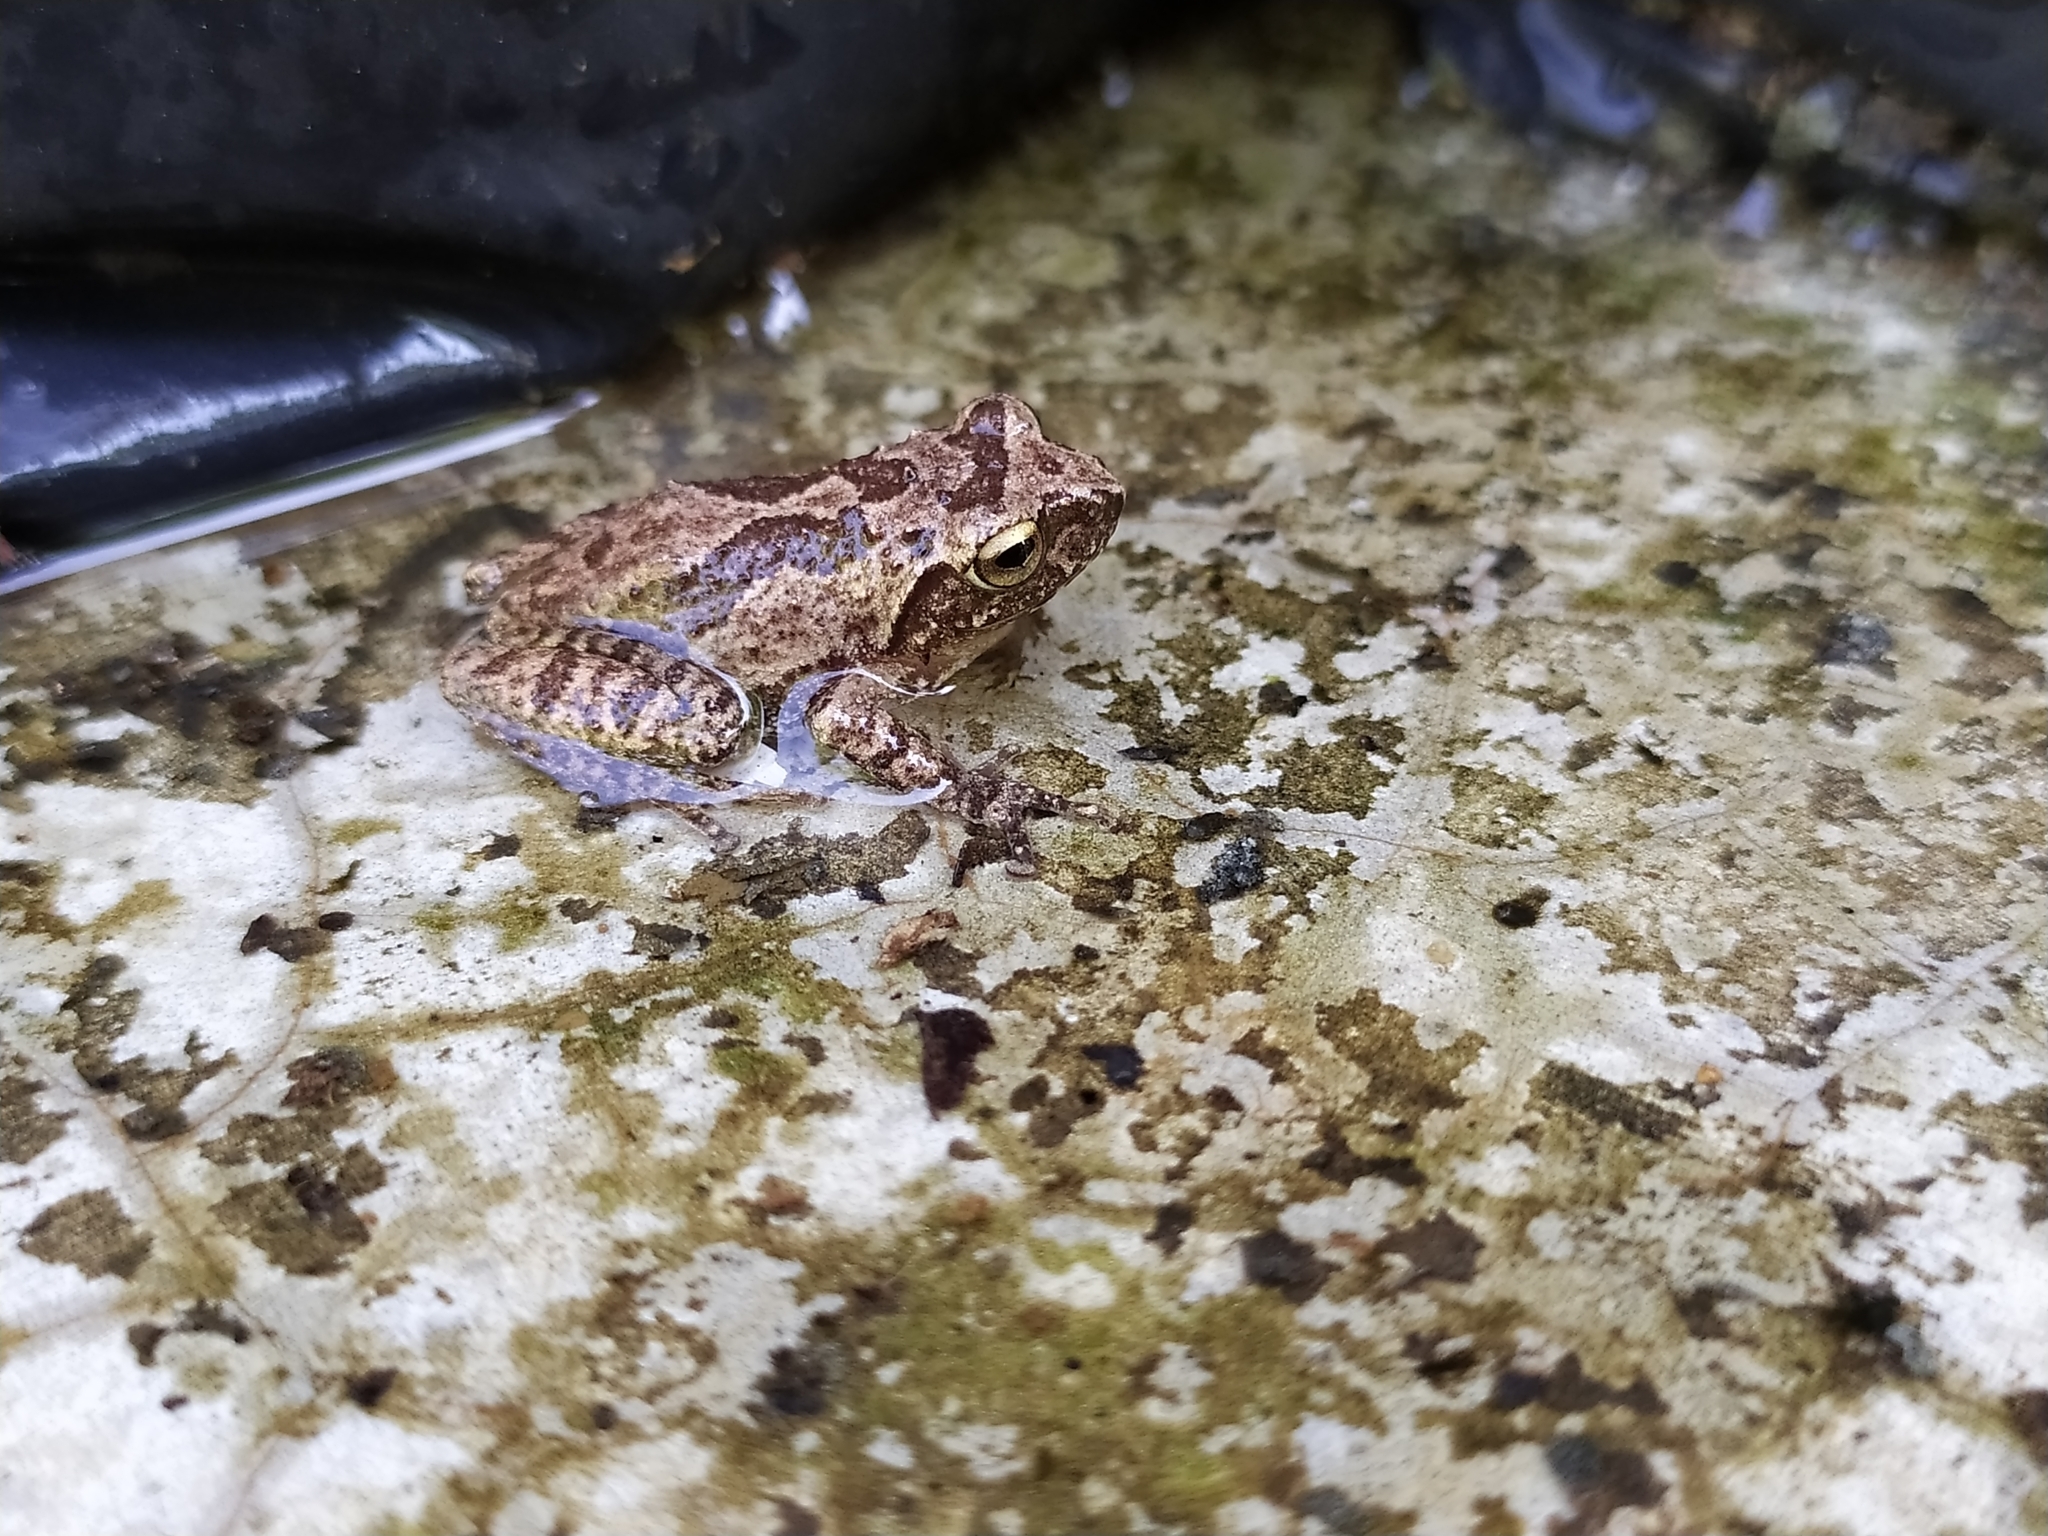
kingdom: Animalia
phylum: Chordata
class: Amphibia
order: Anura
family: Rhacophoridae
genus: Raorchestes
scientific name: Raorchestes charius
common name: Seshachar's bush frog
